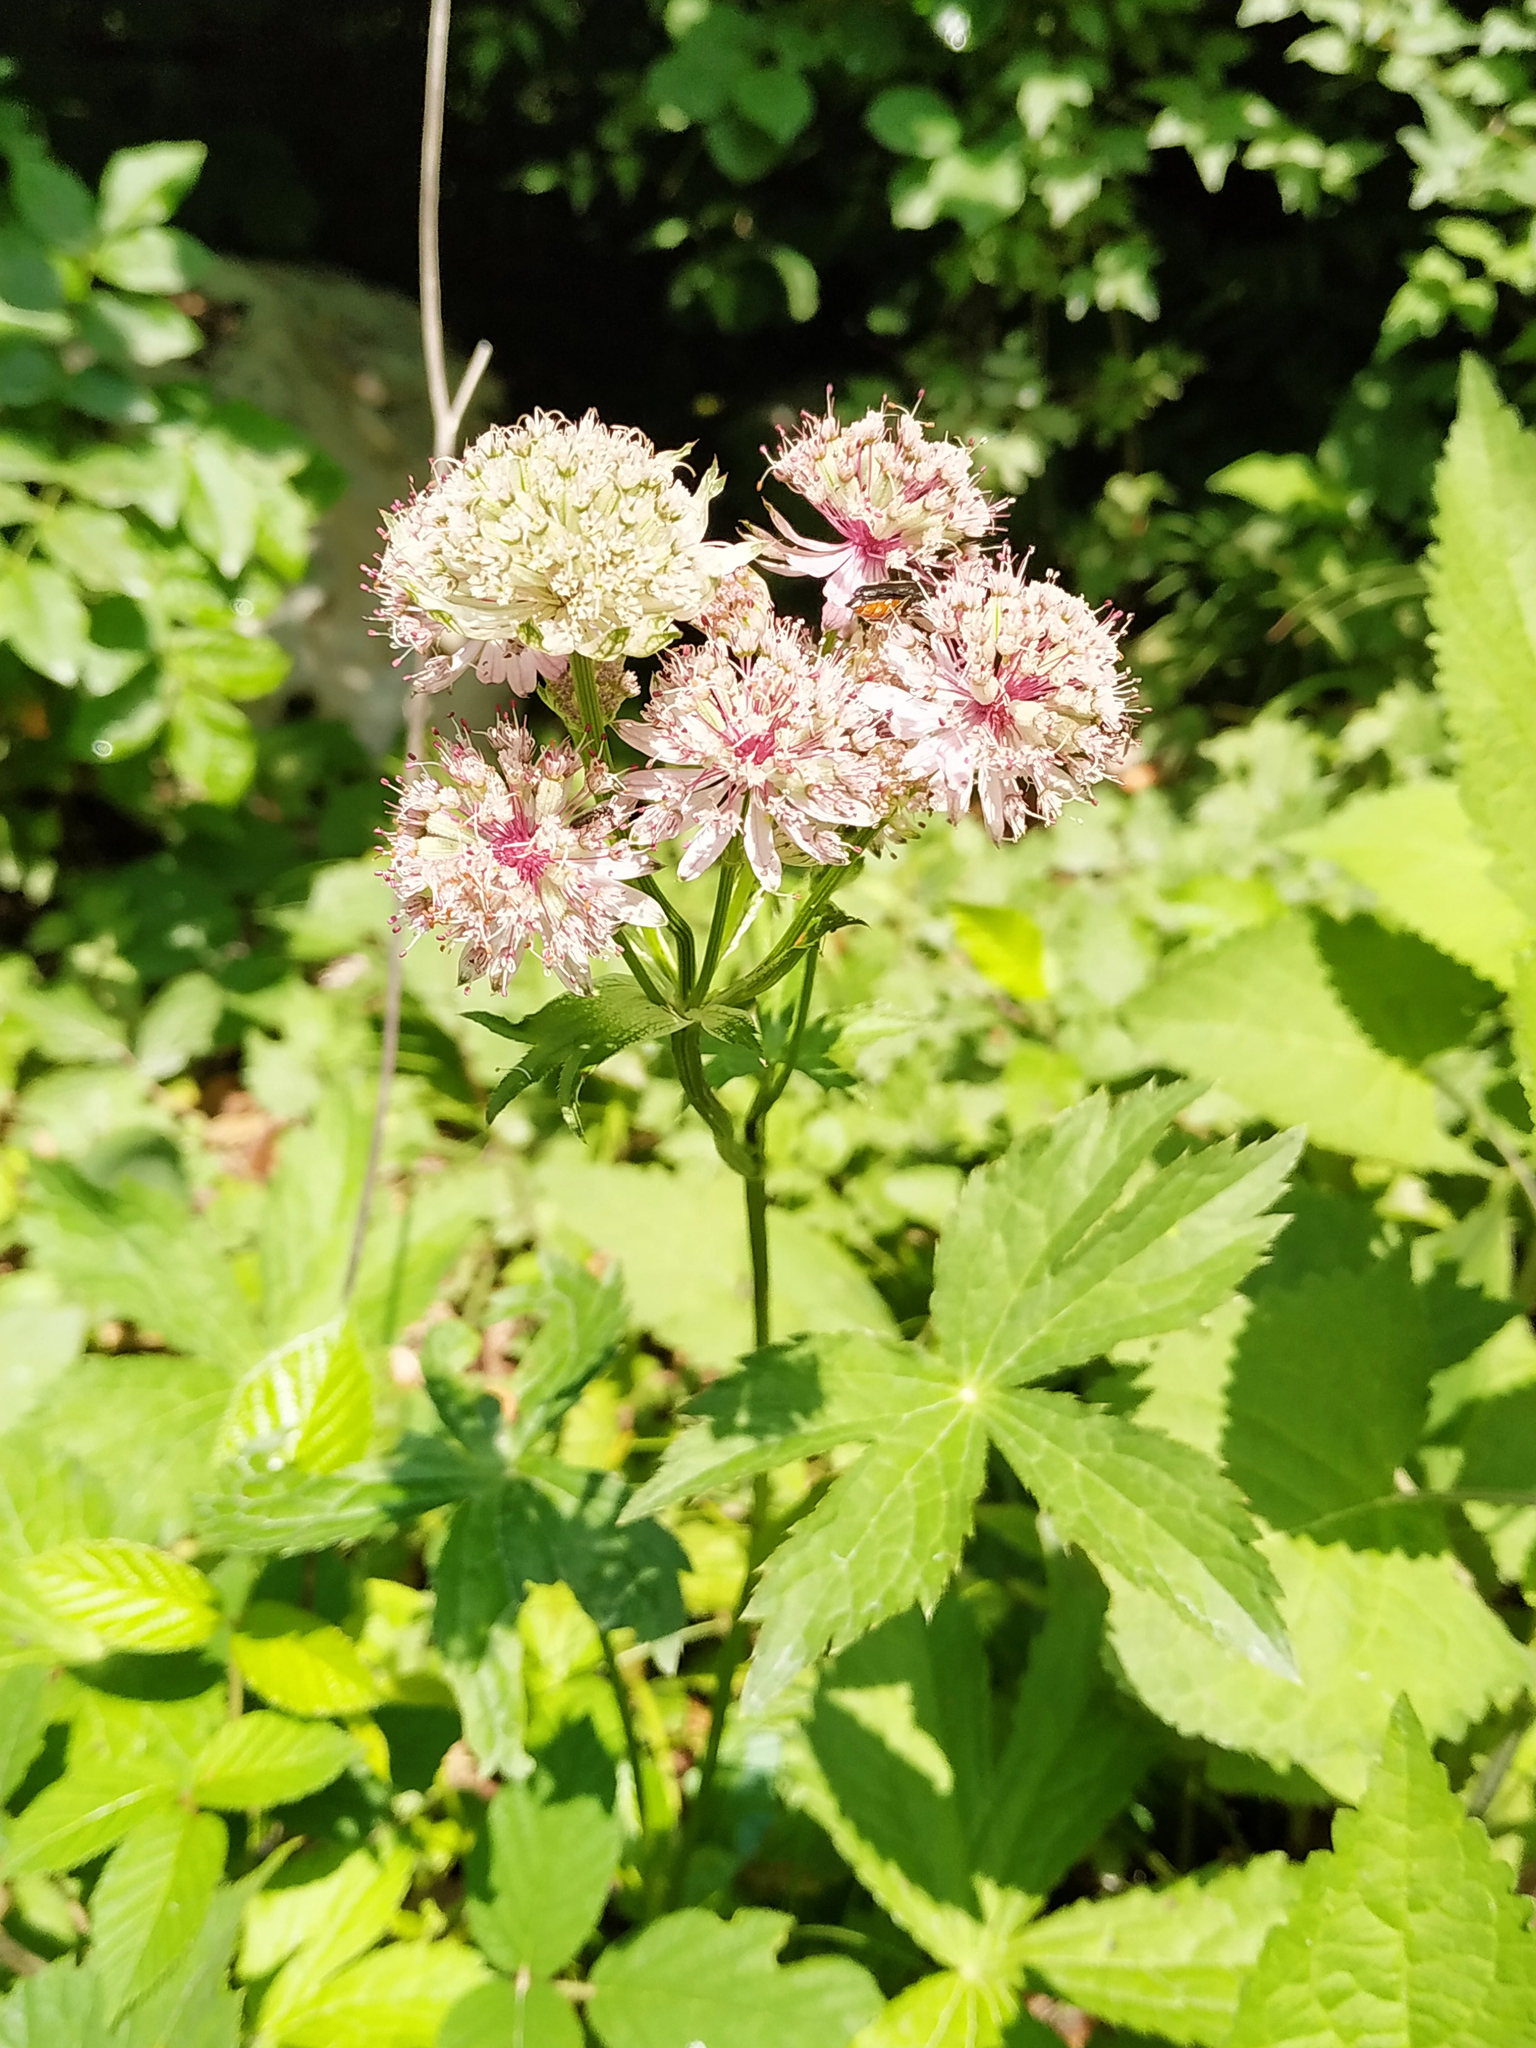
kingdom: Plantae
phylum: Tracheophyta
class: Magnoliopsida
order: Apiales
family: Apiaceae
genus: Astrantia
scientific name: Astrantia major
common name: Greater masterwort
